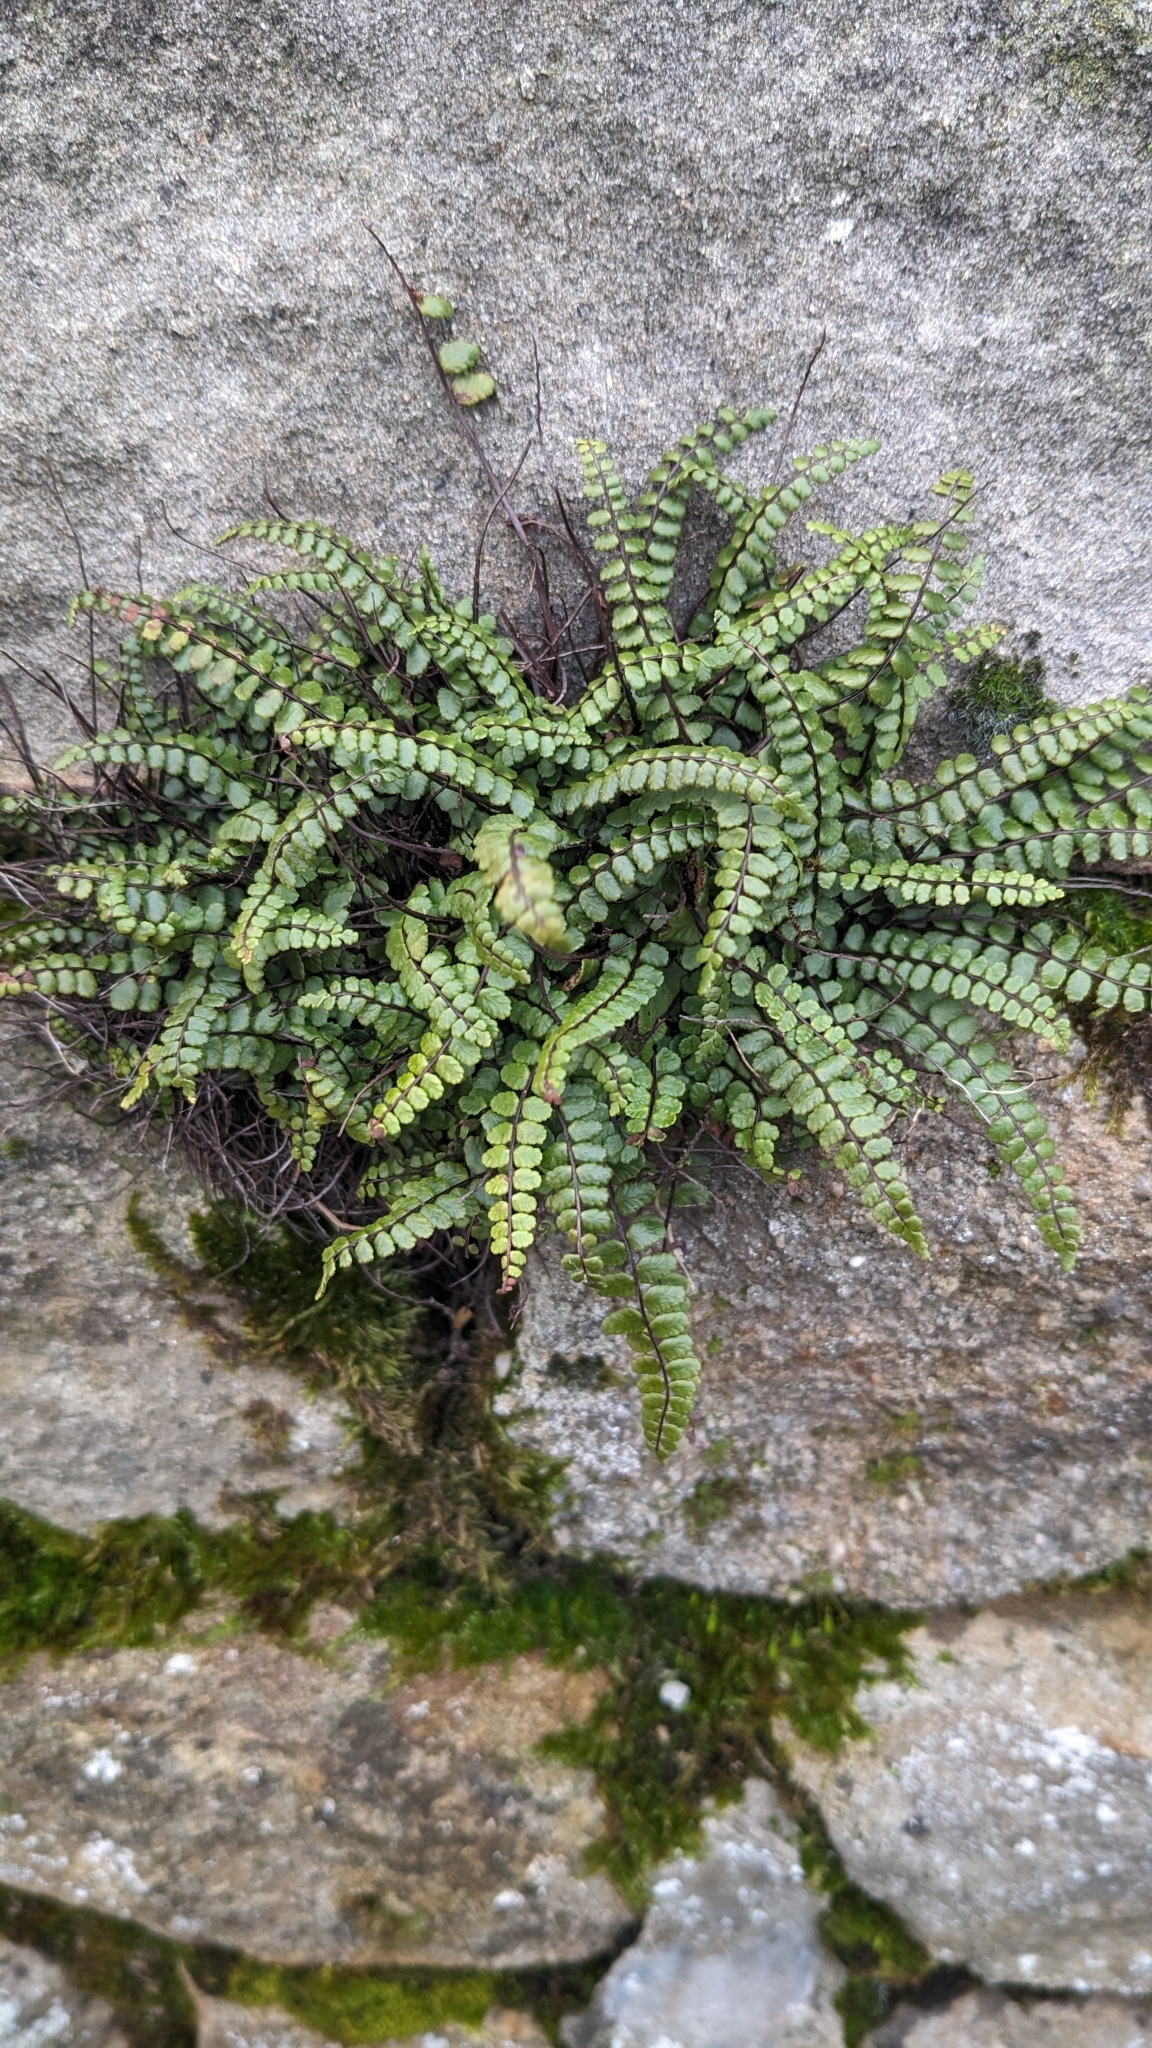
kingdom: Plantae
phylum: Tracheophyta
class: Polypodiopsida
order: Polypodiales
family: Aspleniaceae
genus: Asplenium
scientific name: Asplenium trichomanes
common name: Maidenhair spleenwort
